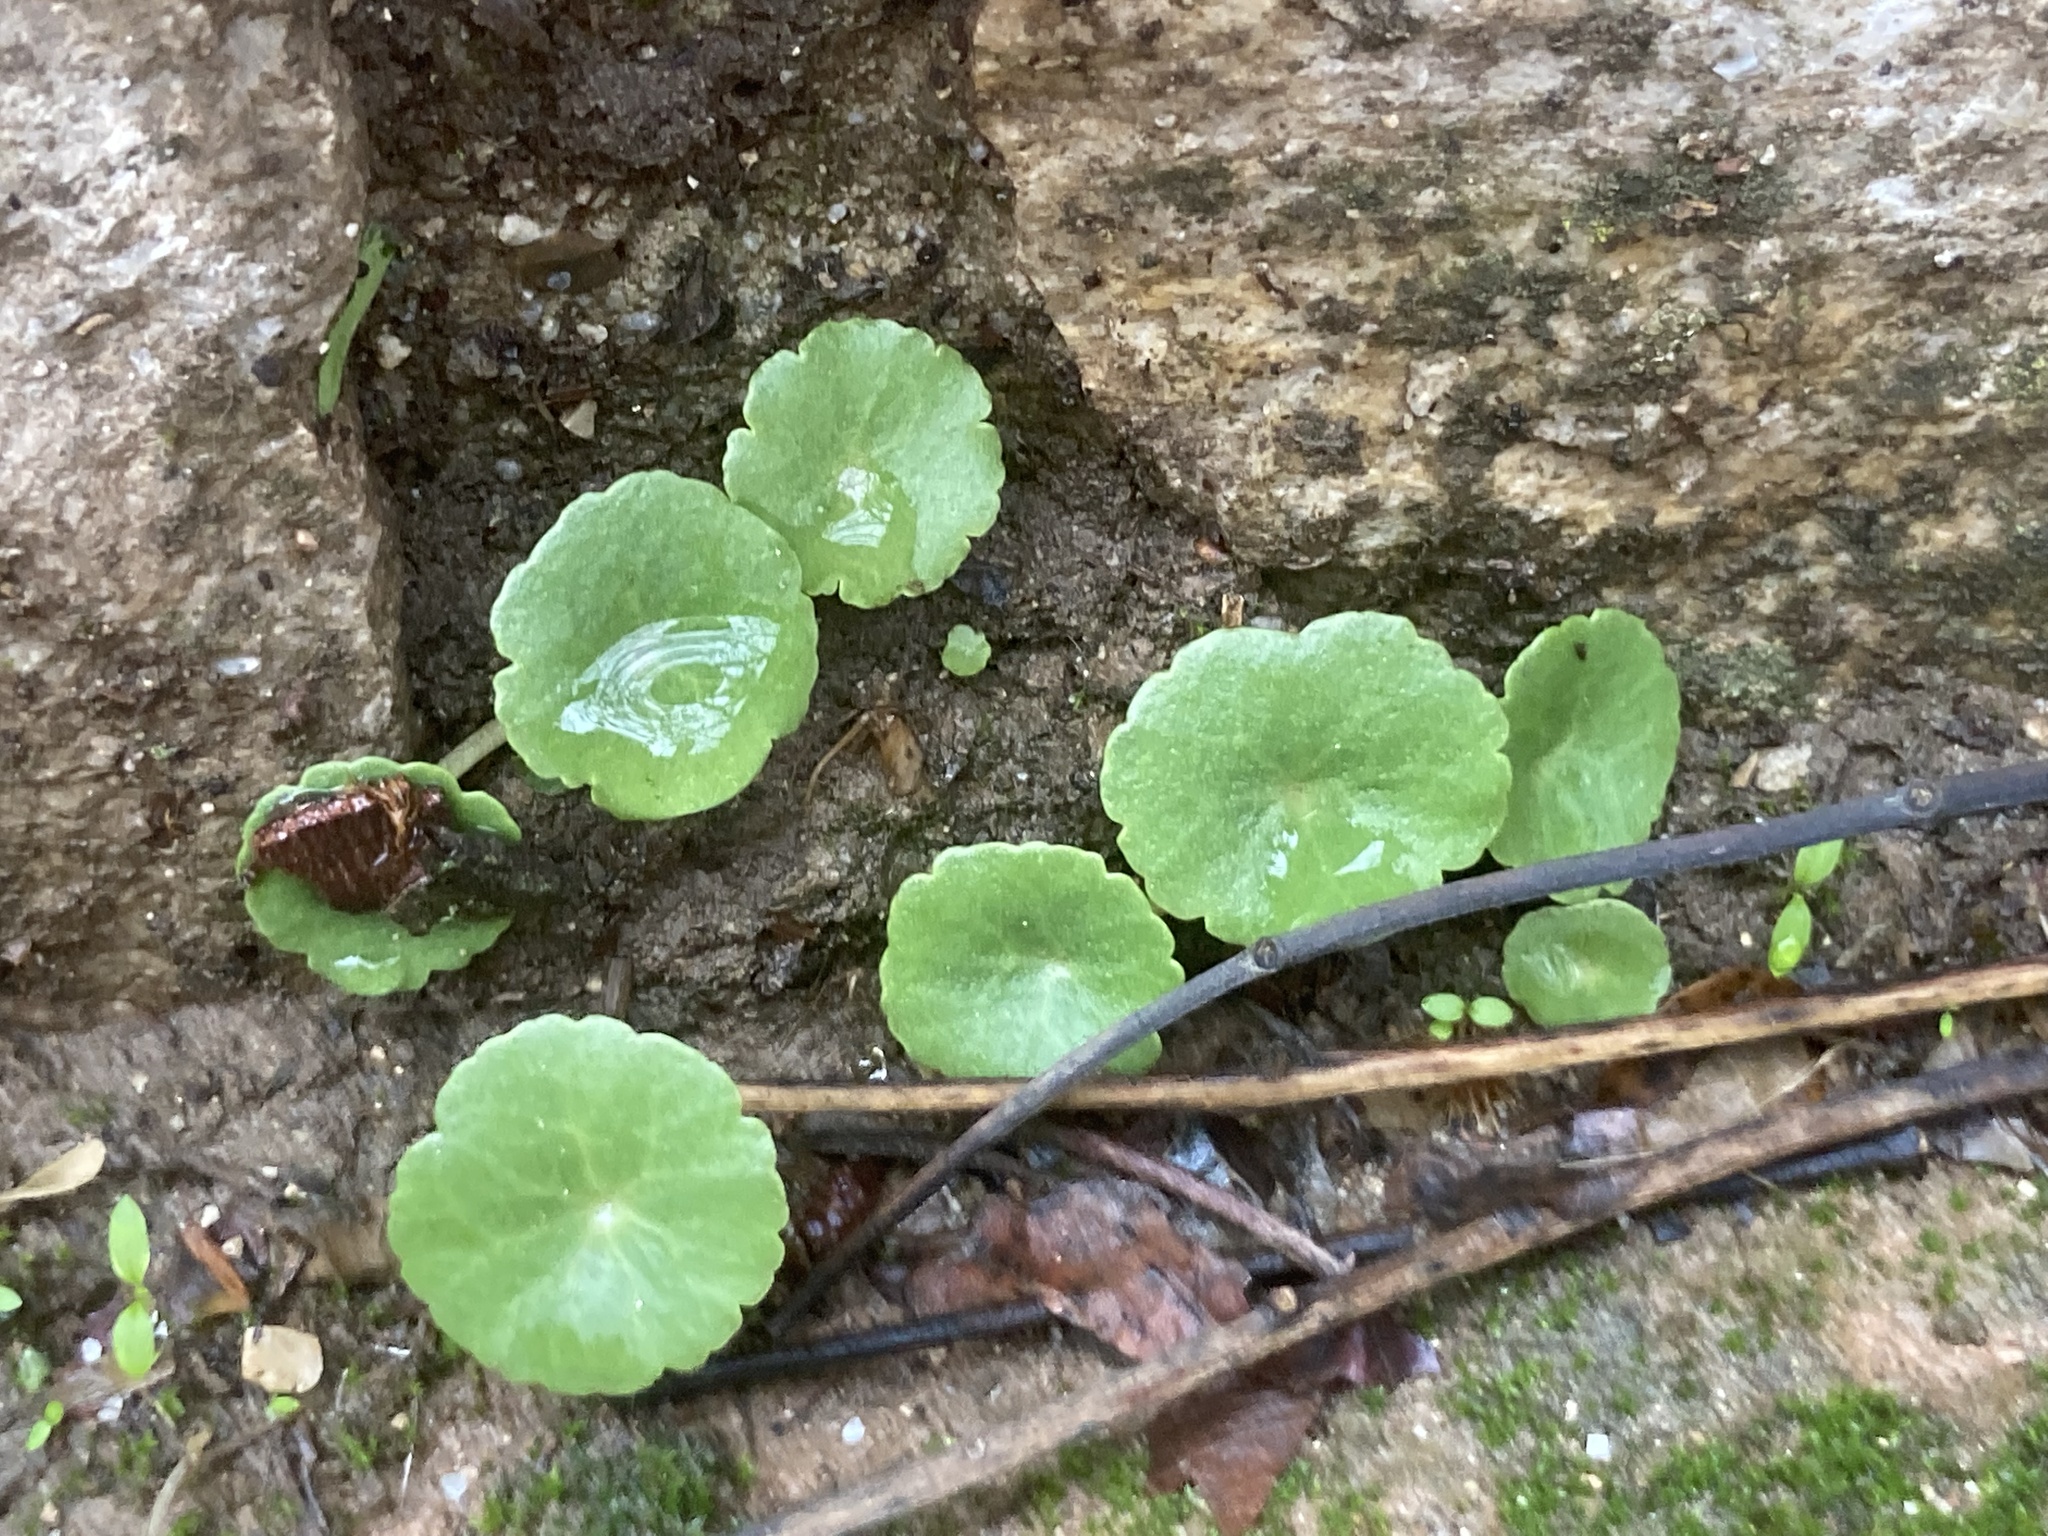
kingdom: Plantae
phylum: Tracheophyta
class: Magnoliopsida
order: Saxifragales
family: Crassulaceae
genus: Umbilicus
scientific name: Umbilicus rupestris
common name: Navelwort
